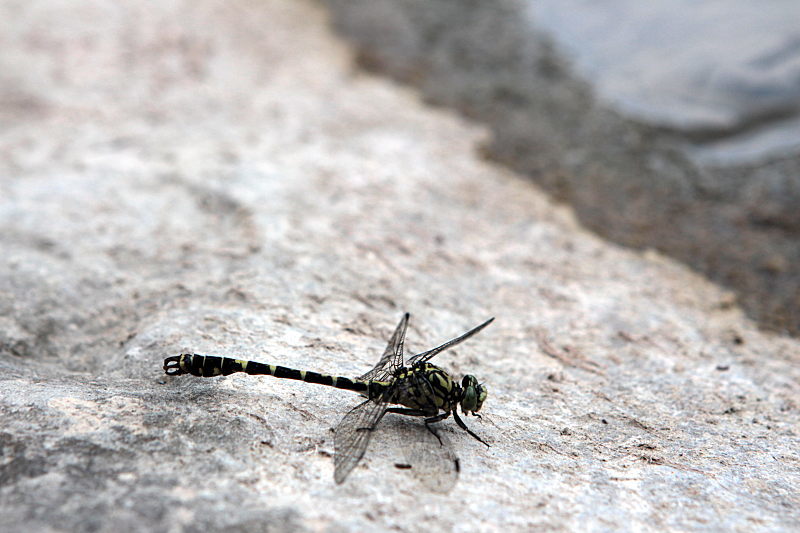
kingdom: Animalia
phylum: Arthropoda
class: Insecta
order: Odonata
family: Gomphidae
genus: Onychogomphus
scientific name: Onychogomphus forcipatus
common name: Small pincertail
